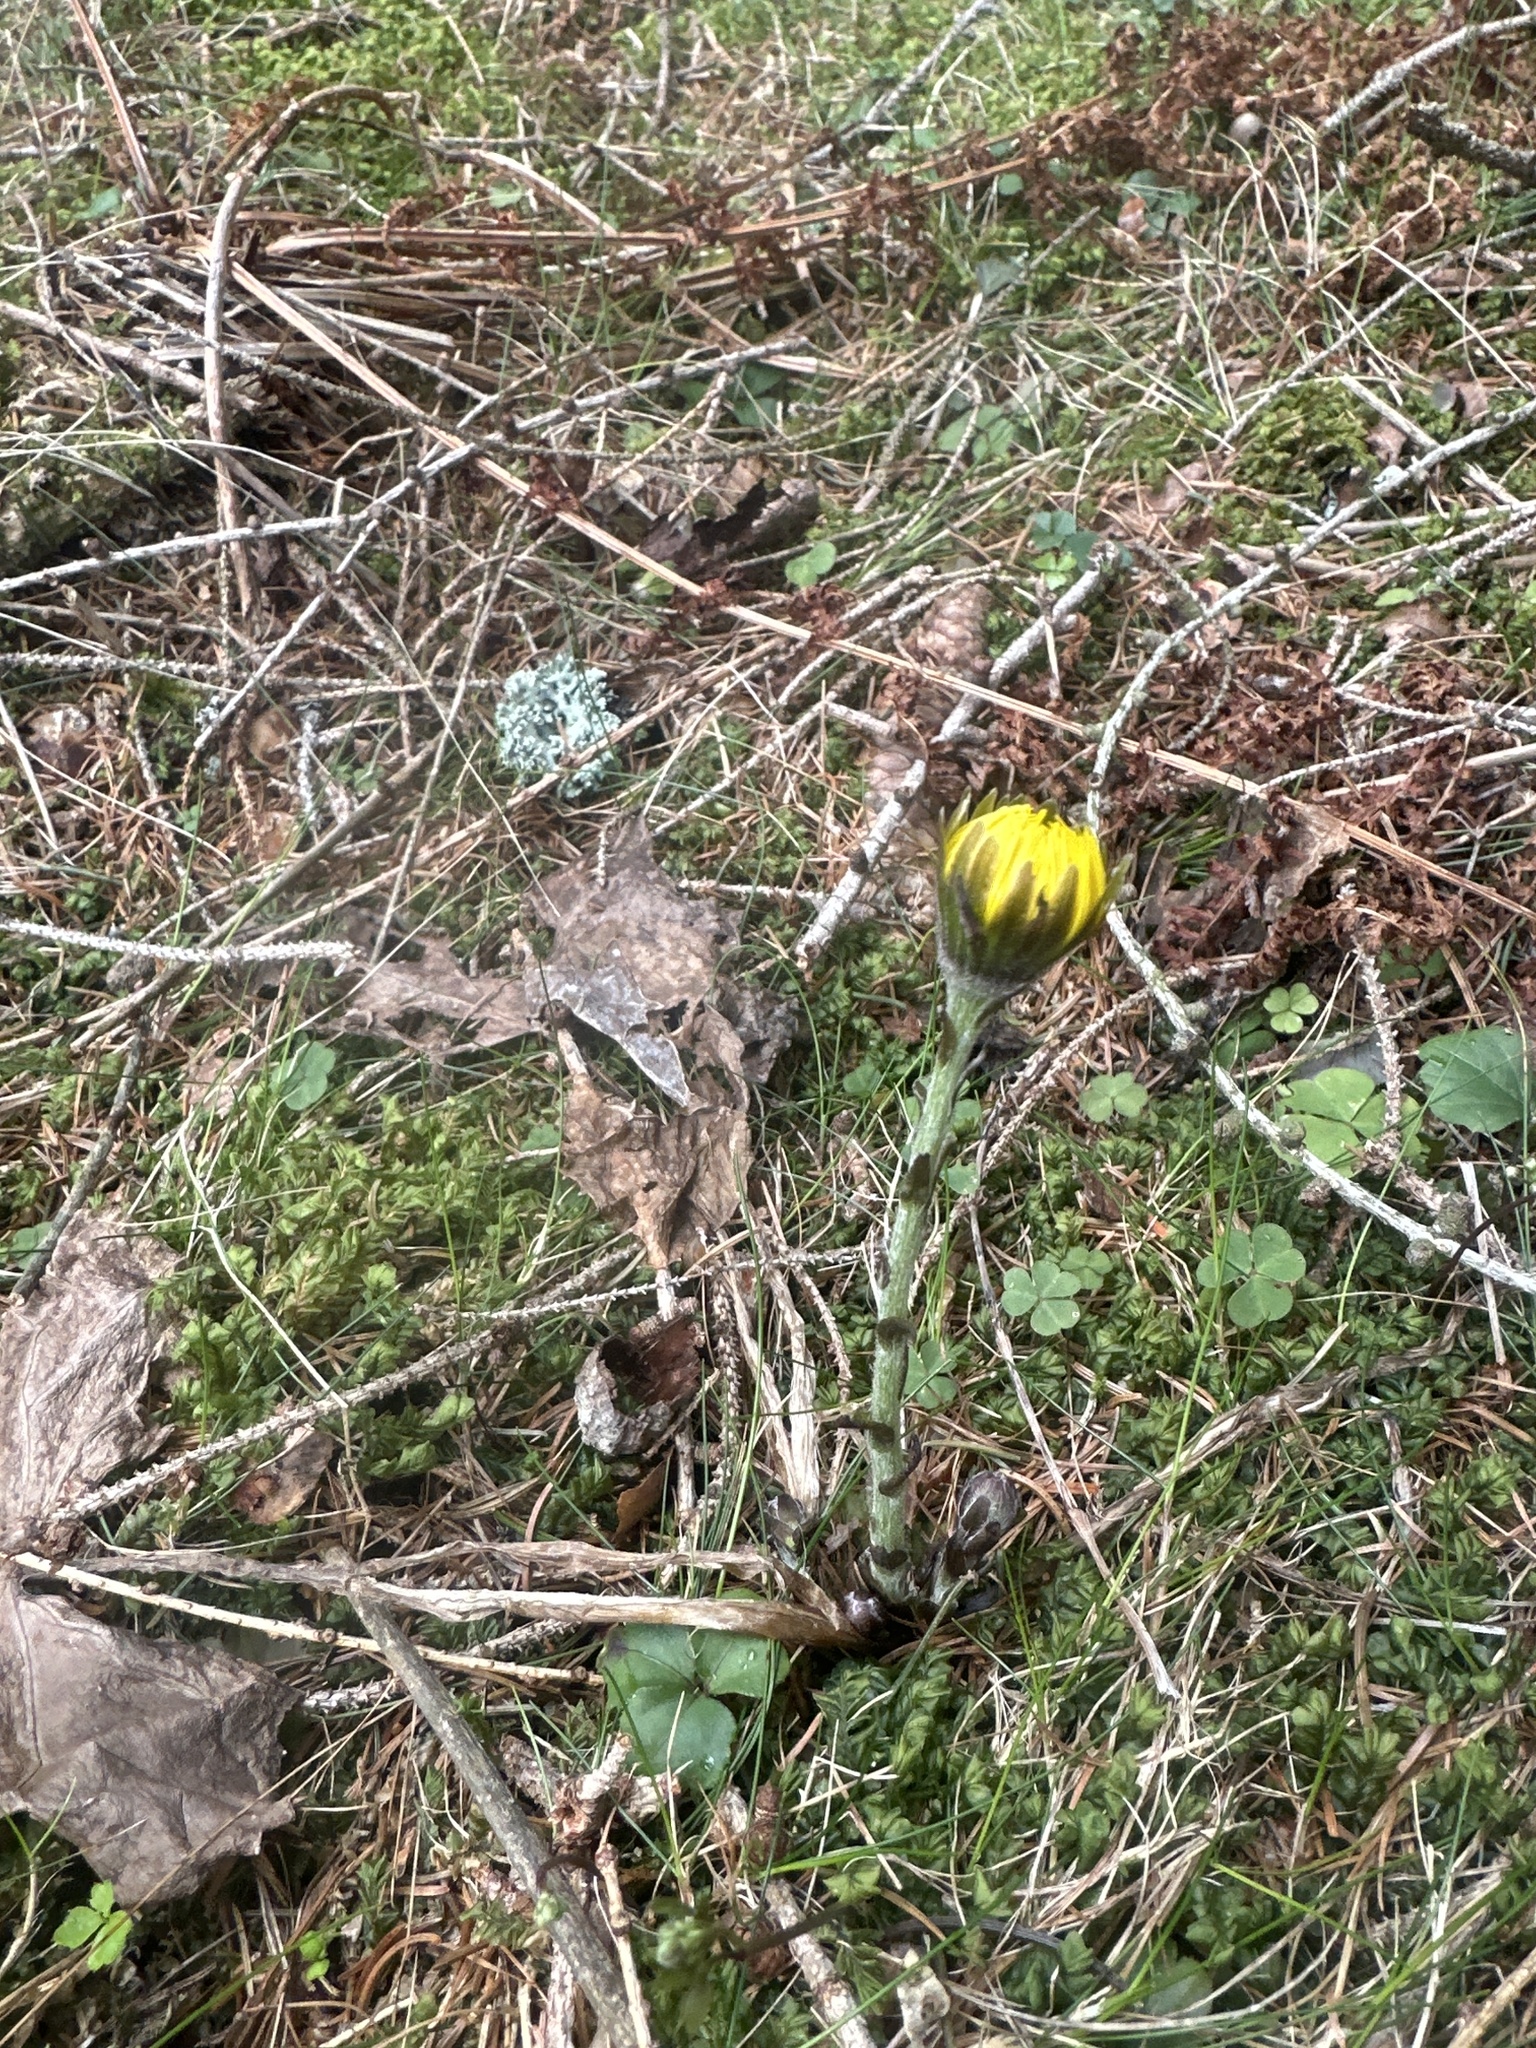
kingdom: Plantae
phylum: Tracheophyta
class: Magnoliopsida
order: Asterales
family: Asteraceae
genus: Tussilago
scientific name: Tussilago farfara
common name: Coltsfoot
